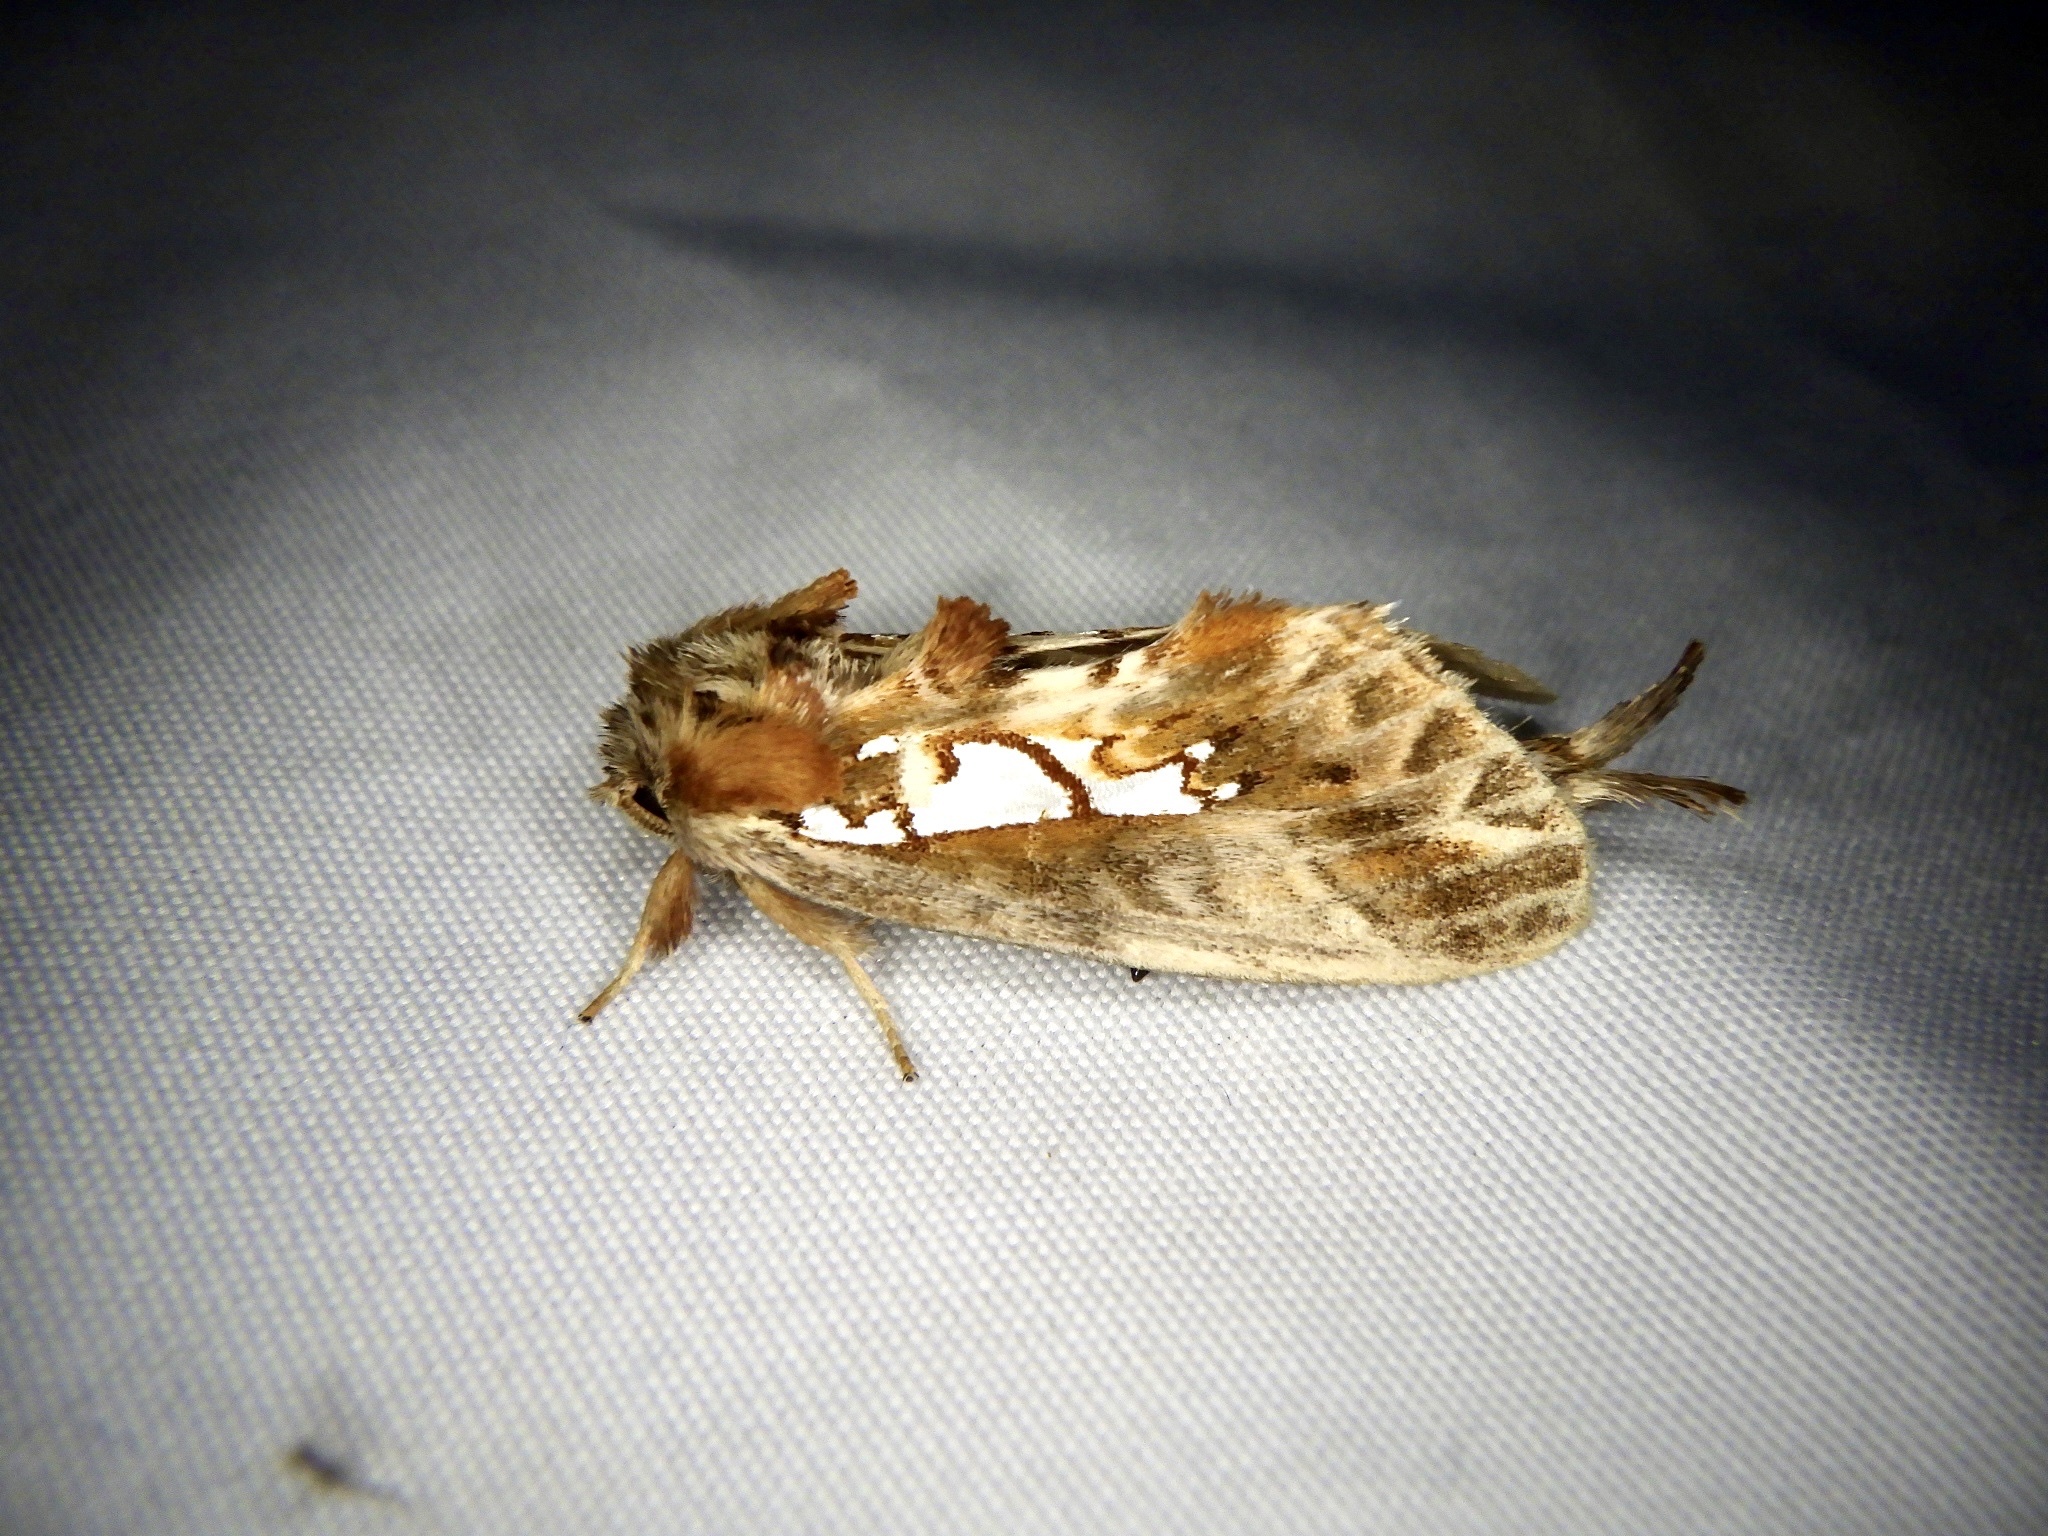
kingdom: Animalia
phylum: Arthropoda
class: Insecta
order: Lepidoptera
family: Notodontidae
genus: Spatalia
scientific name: Spatalia doerriesi
